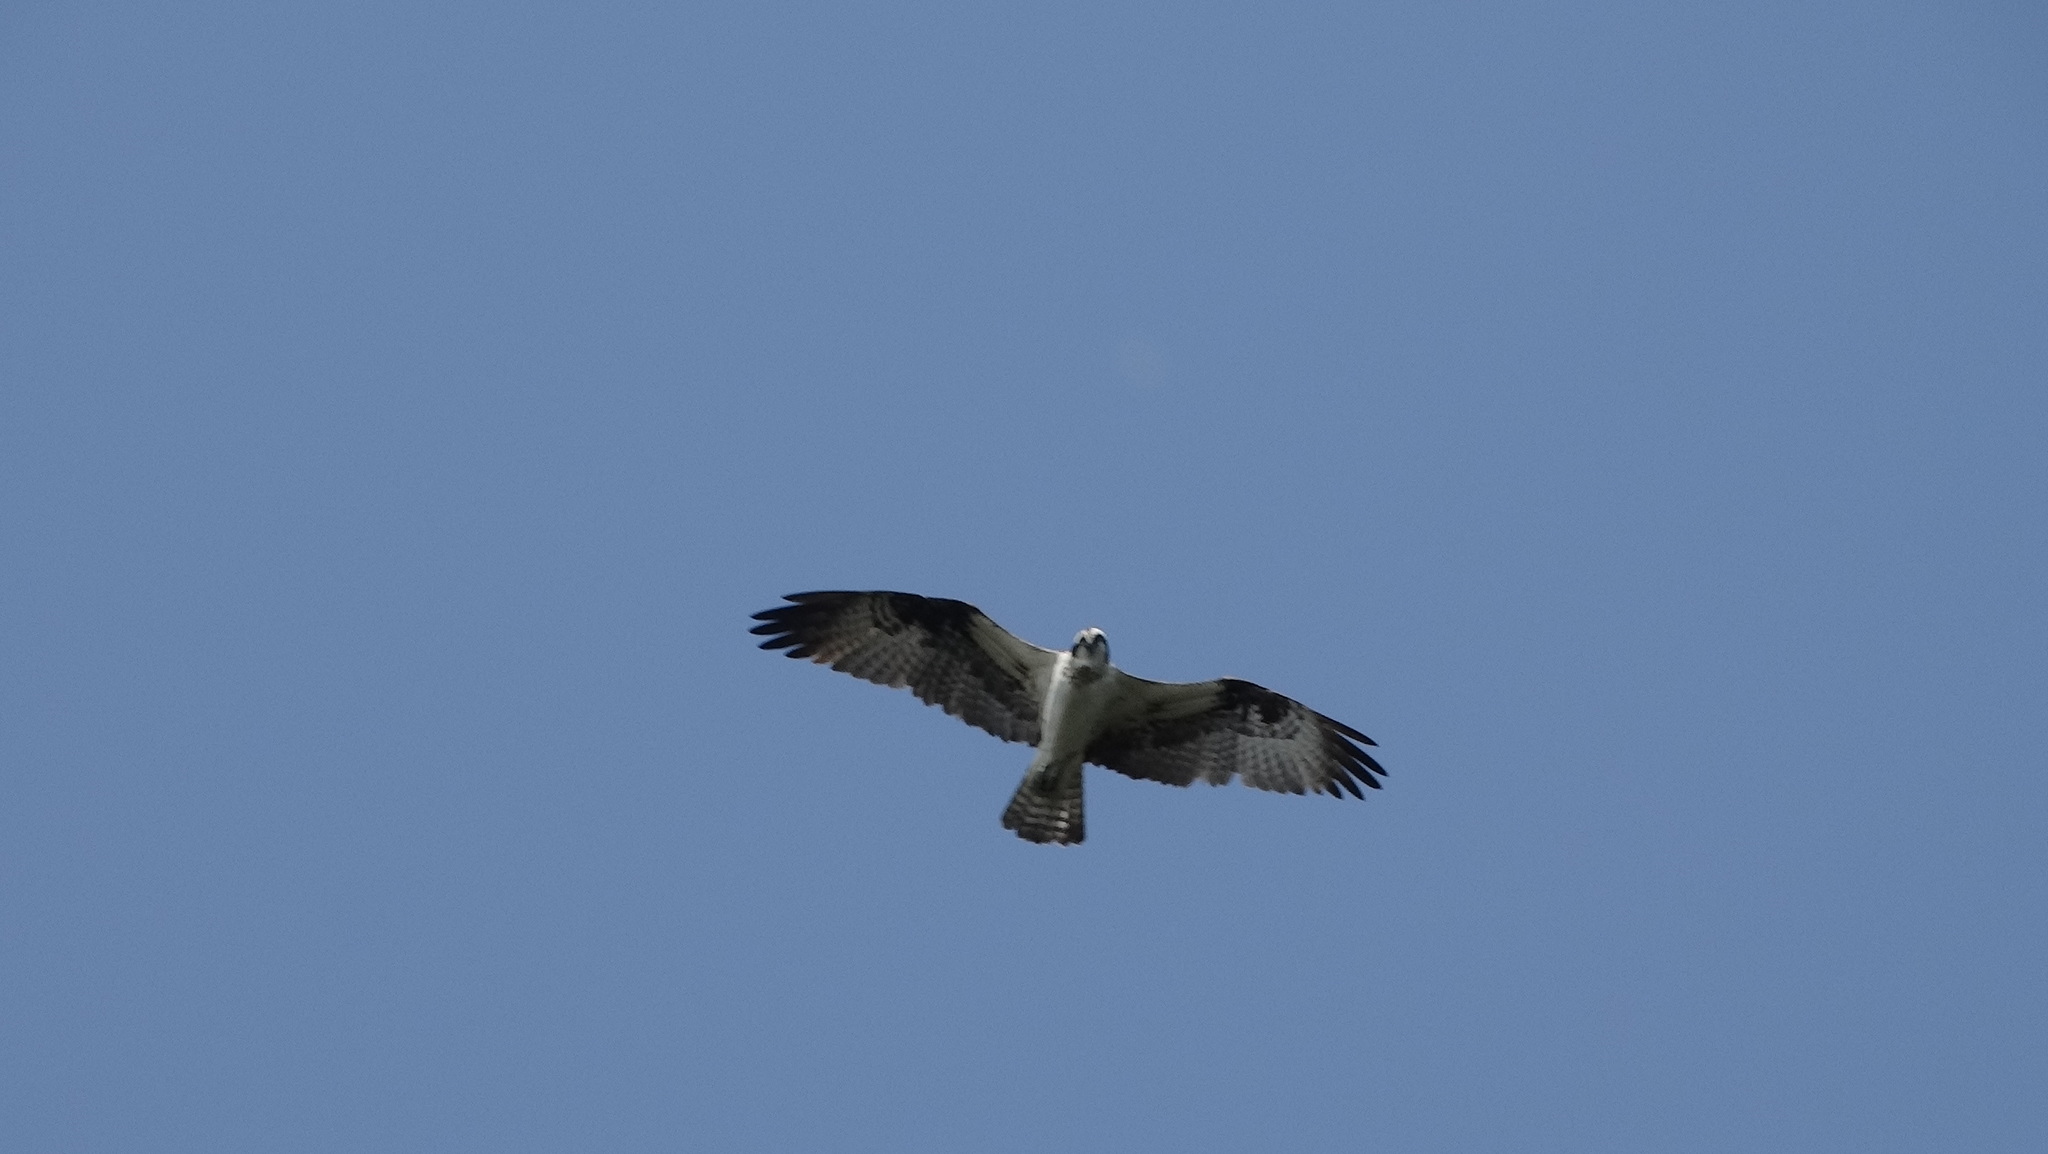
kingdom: Animalia
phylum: Chordata
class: Aves
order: Accipitriformes
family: Pandionidae
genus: Pandion
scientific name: Pandion haliaetus
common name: Osprey
